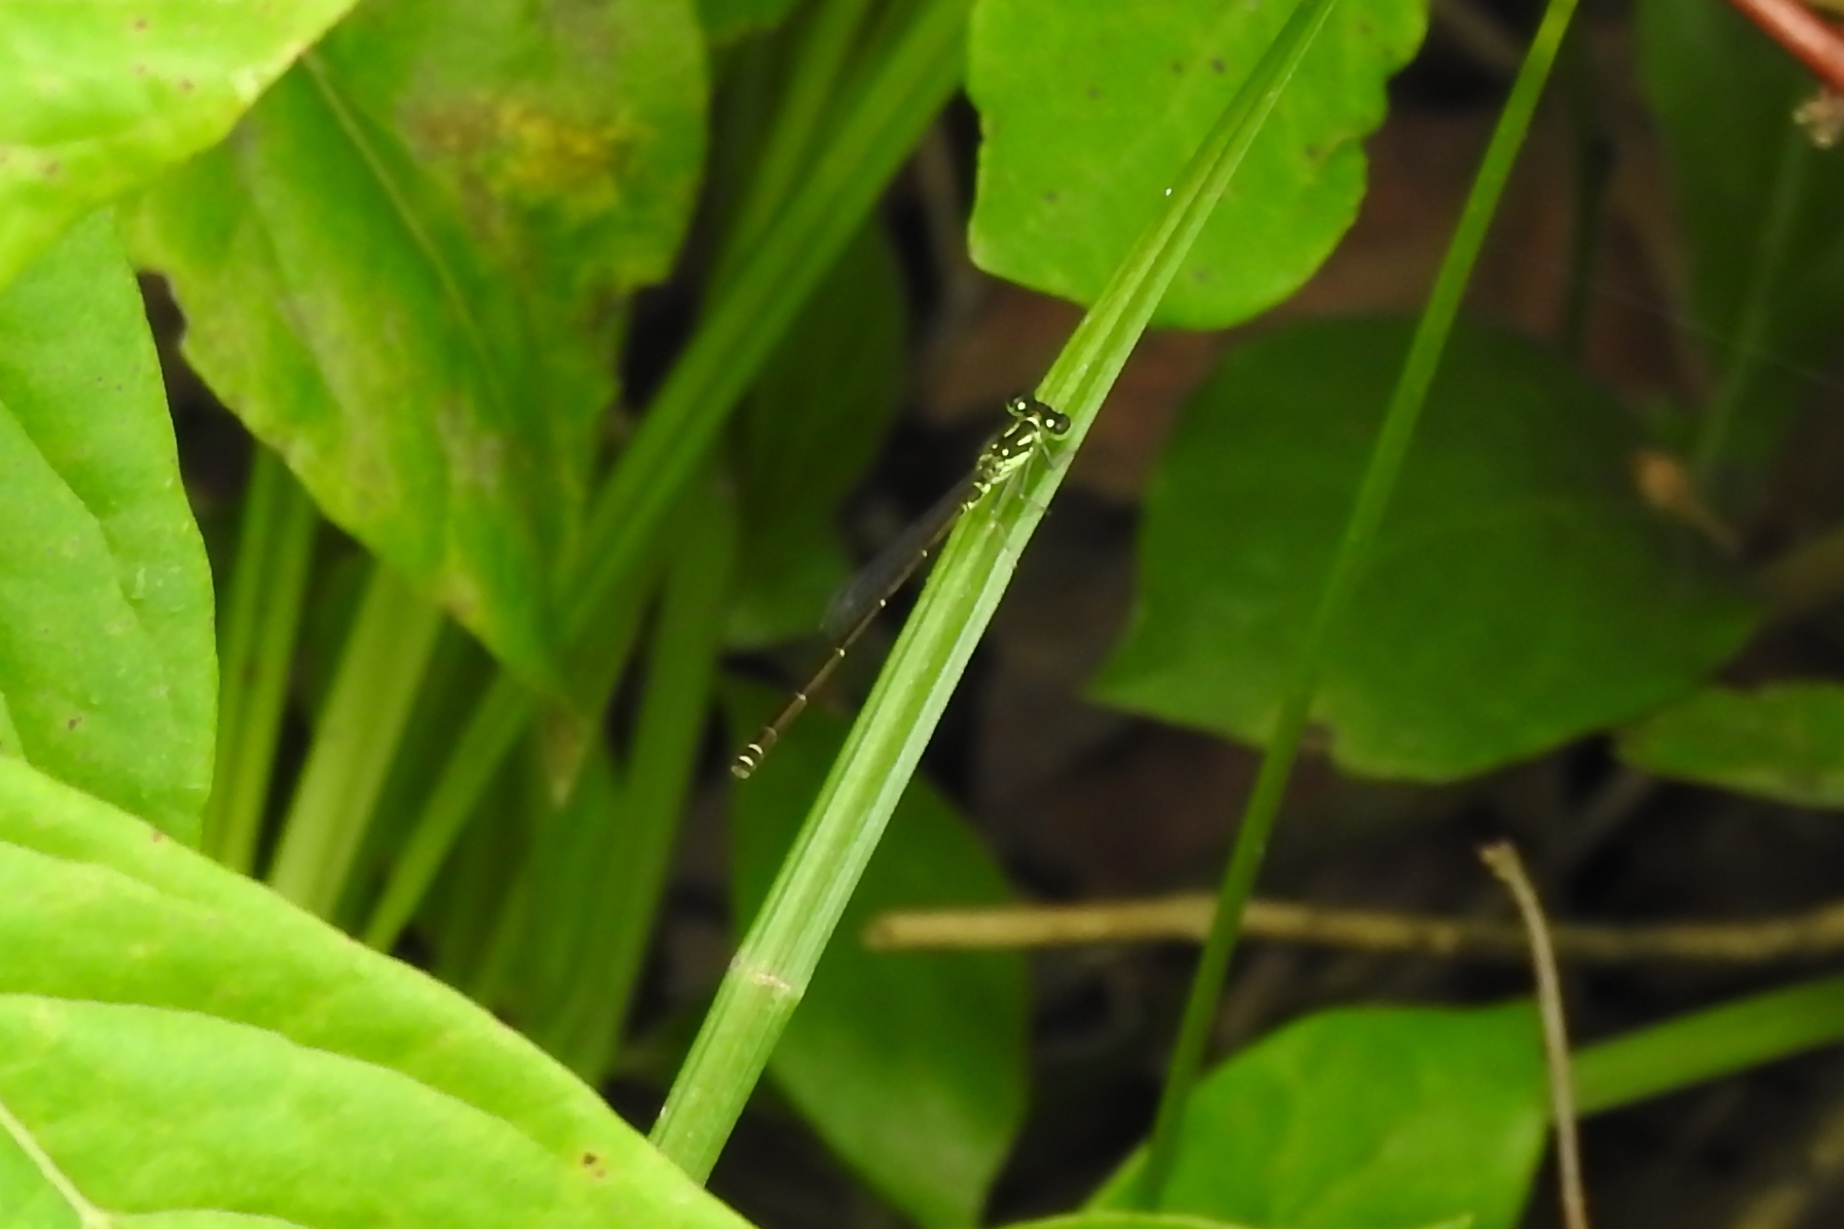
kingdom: Animalia
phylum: Arthropoda
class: Insecta
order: Odonata
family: Coenagrionidae
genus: Ischnura
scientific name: Ischnura posita
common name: Fragile forktail
